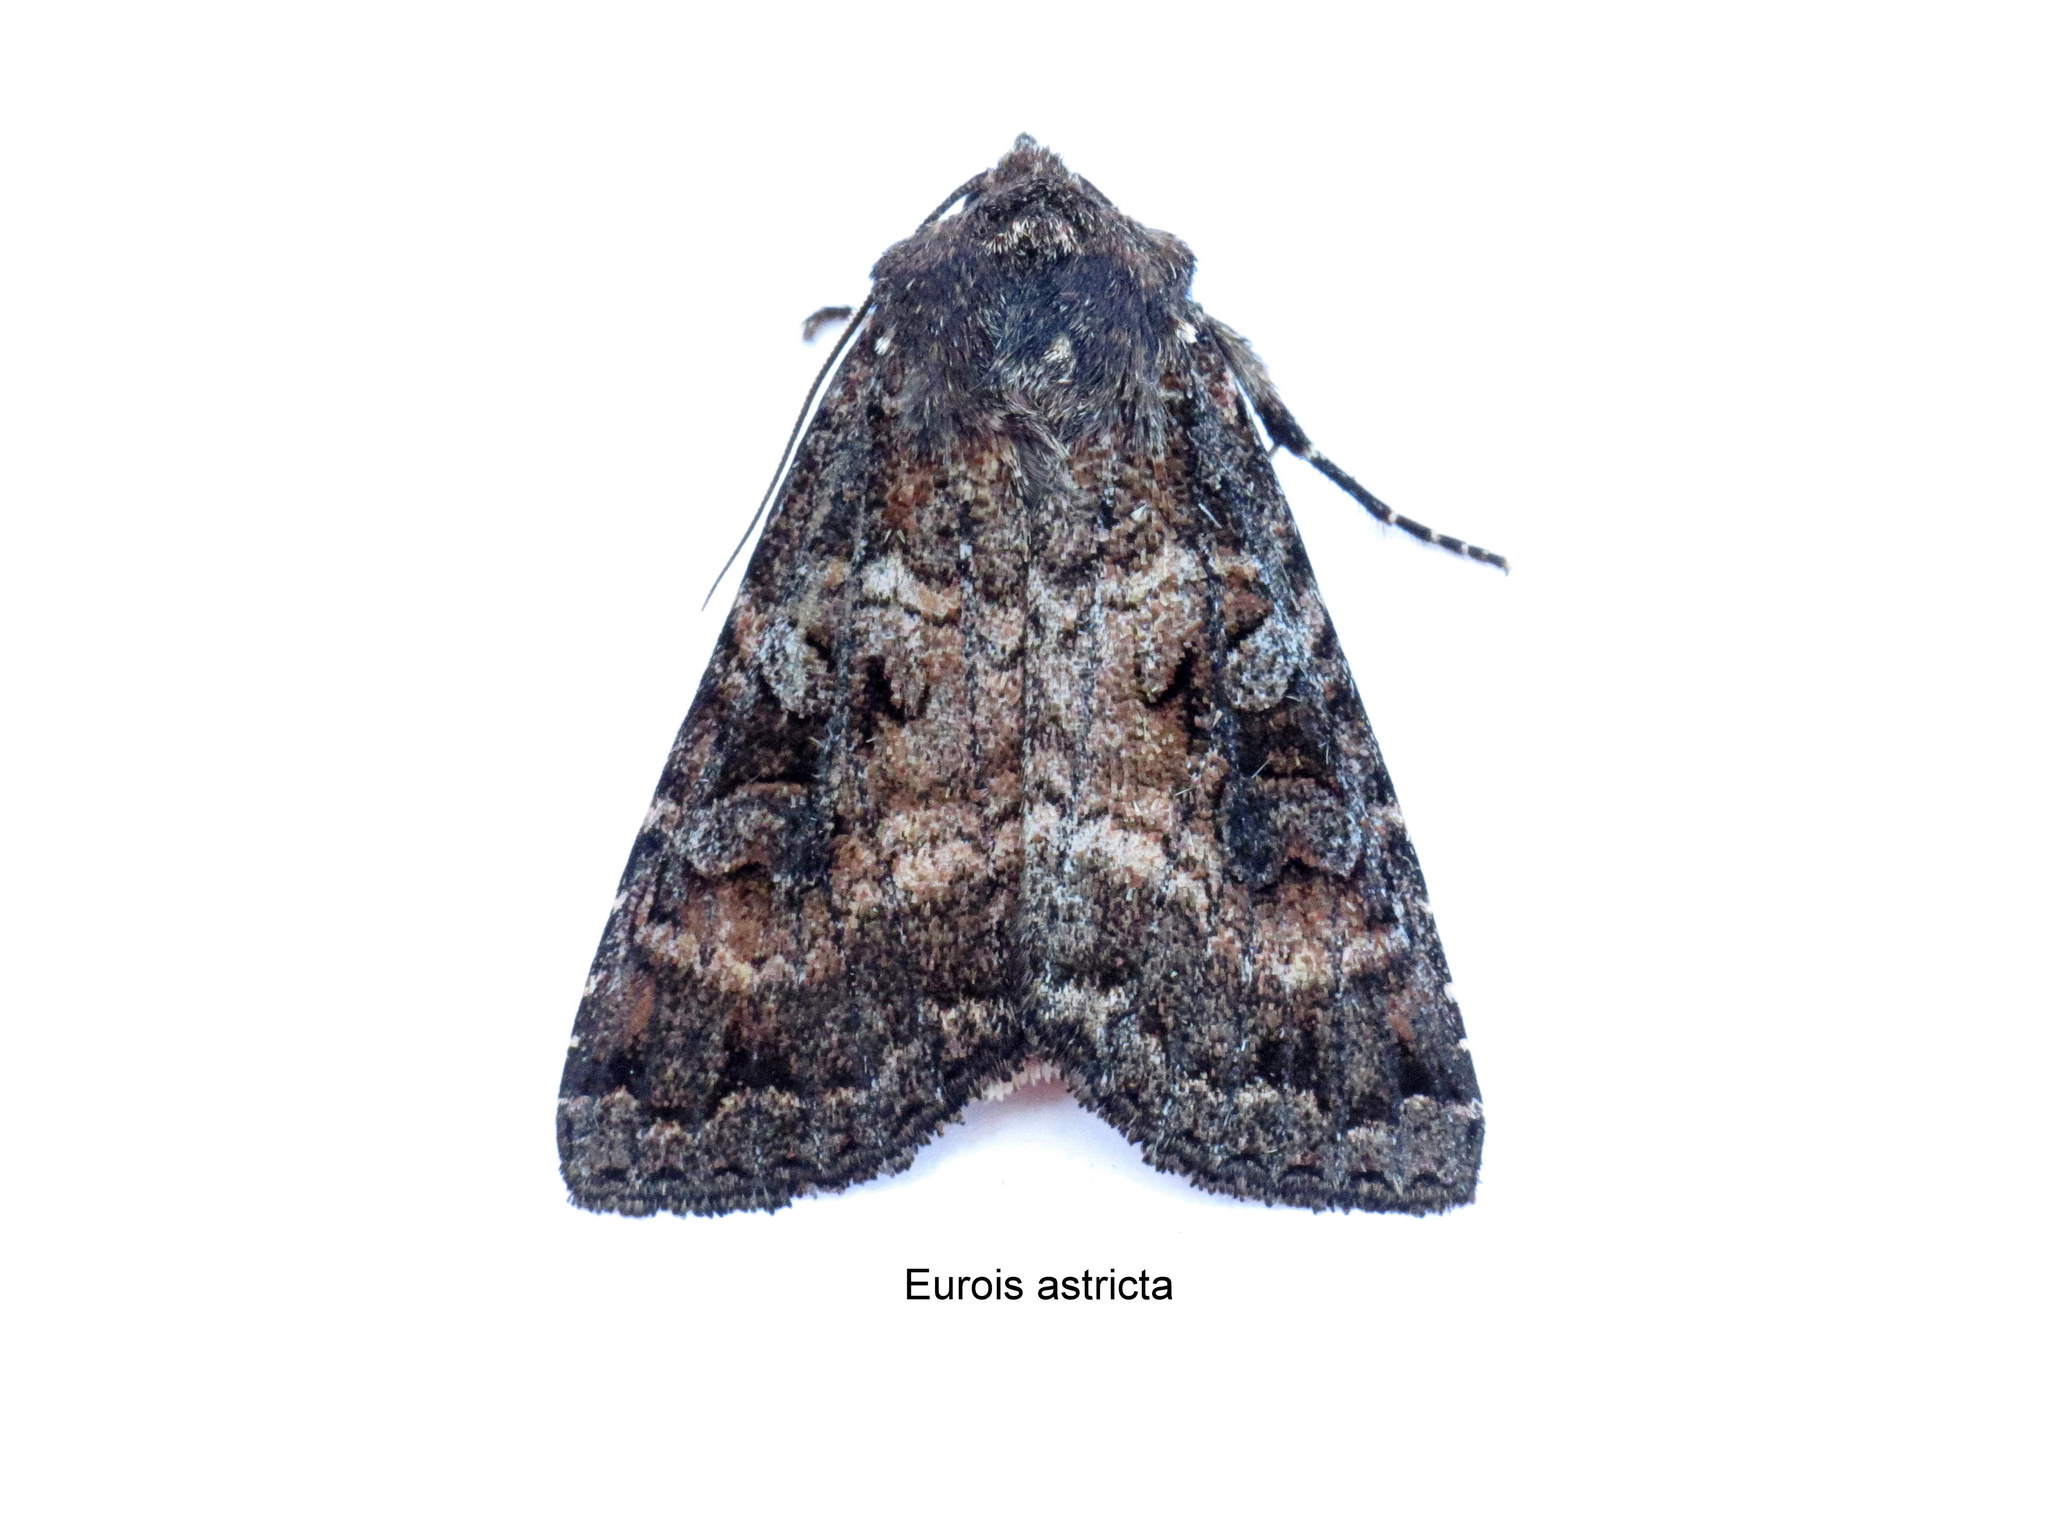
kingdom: Animalia
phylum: Arthropoda
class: Insecta
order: Lepidoptera
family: Noctuidae
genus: Eurois
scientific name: Eurois astricta
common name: Great brown dart
